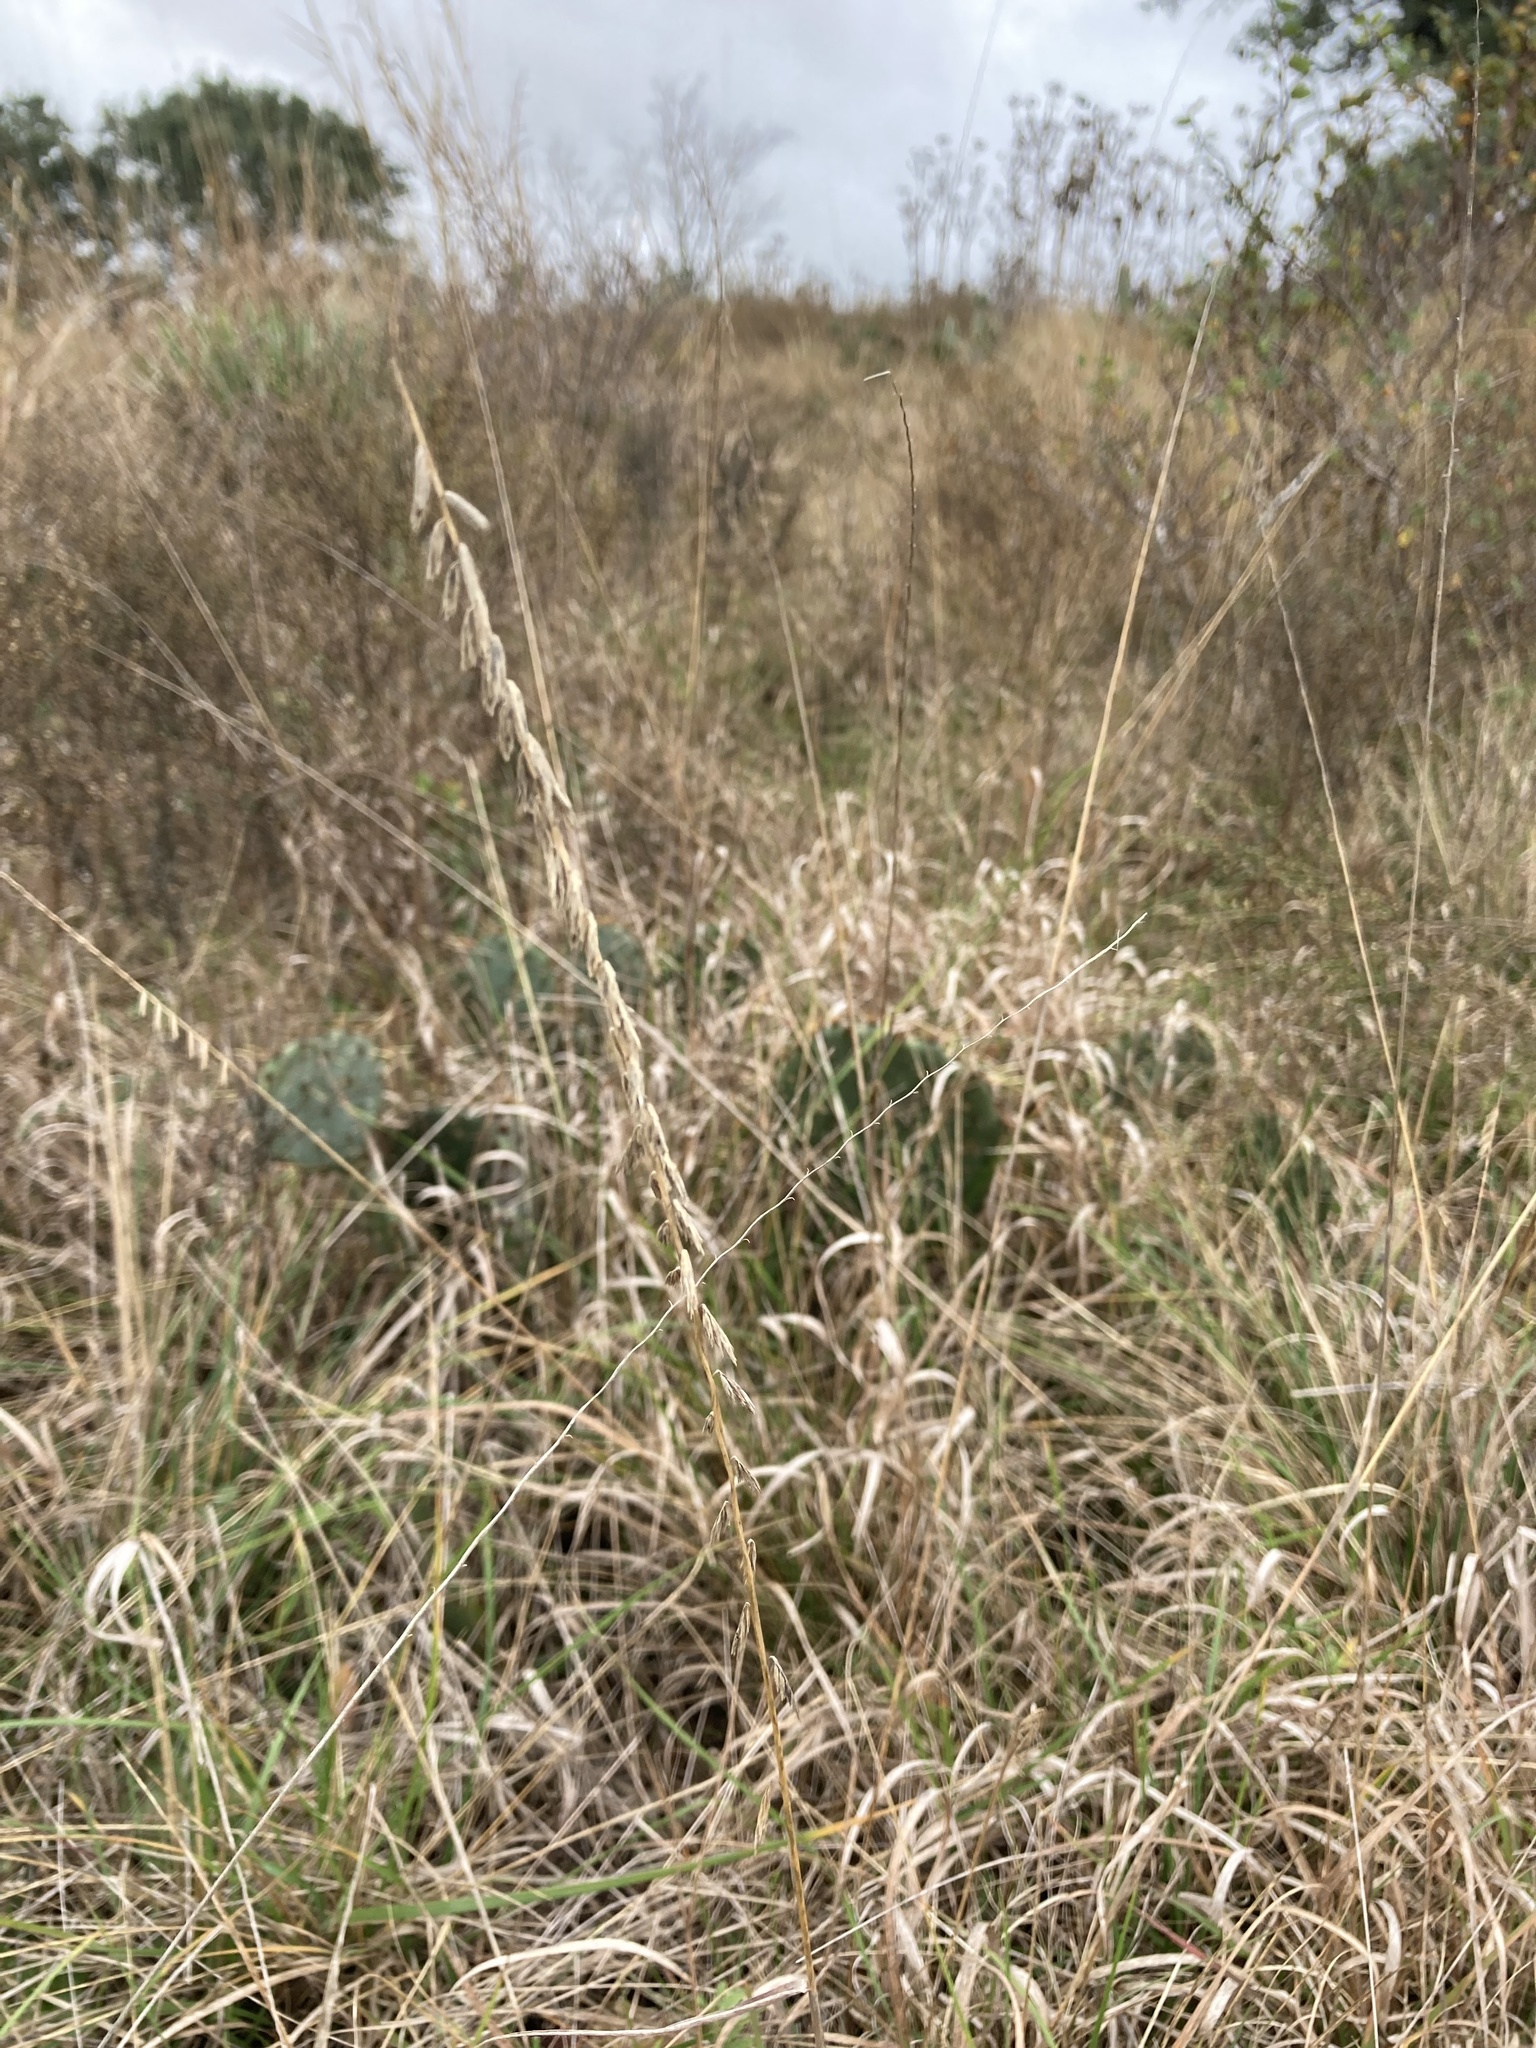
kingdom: Plantae
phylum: Tracheophyta
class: Liliopsida
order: Poales
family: Poaceae
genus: Bouteloua
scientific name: Bouteloua curtipendula
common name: Side-oats grama
